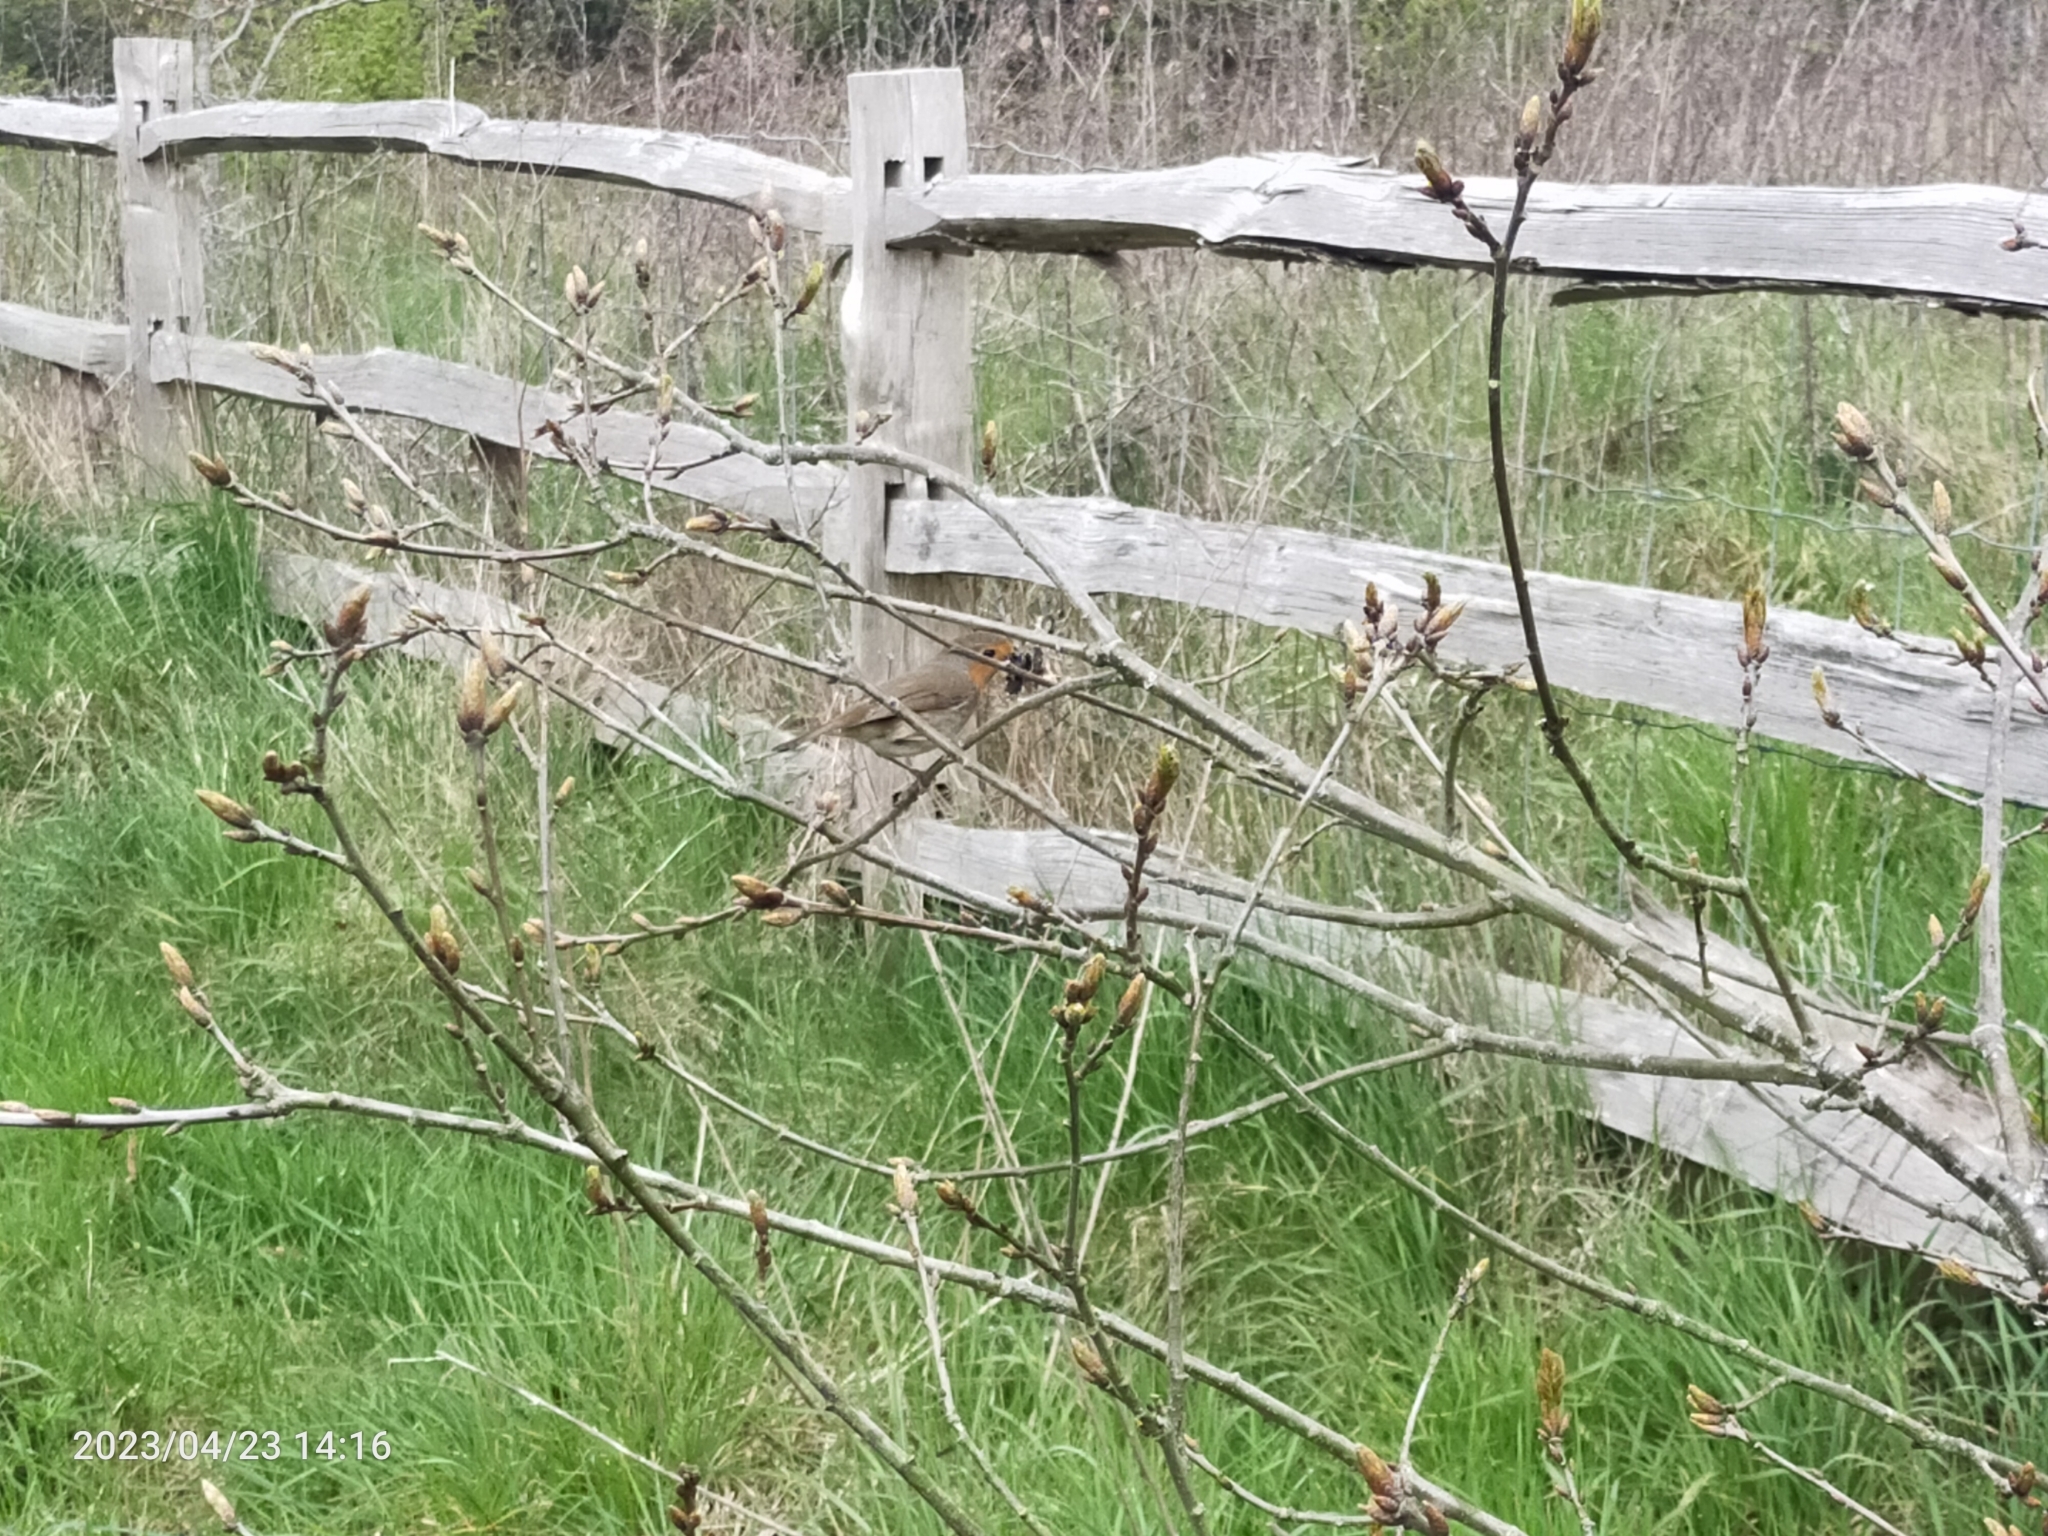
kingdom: Animalia
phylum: Chordata
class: Aves
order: Passeriformes
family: Muscicapidae
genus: Erithacus
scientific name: Erithacus rubecula
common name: European robin
